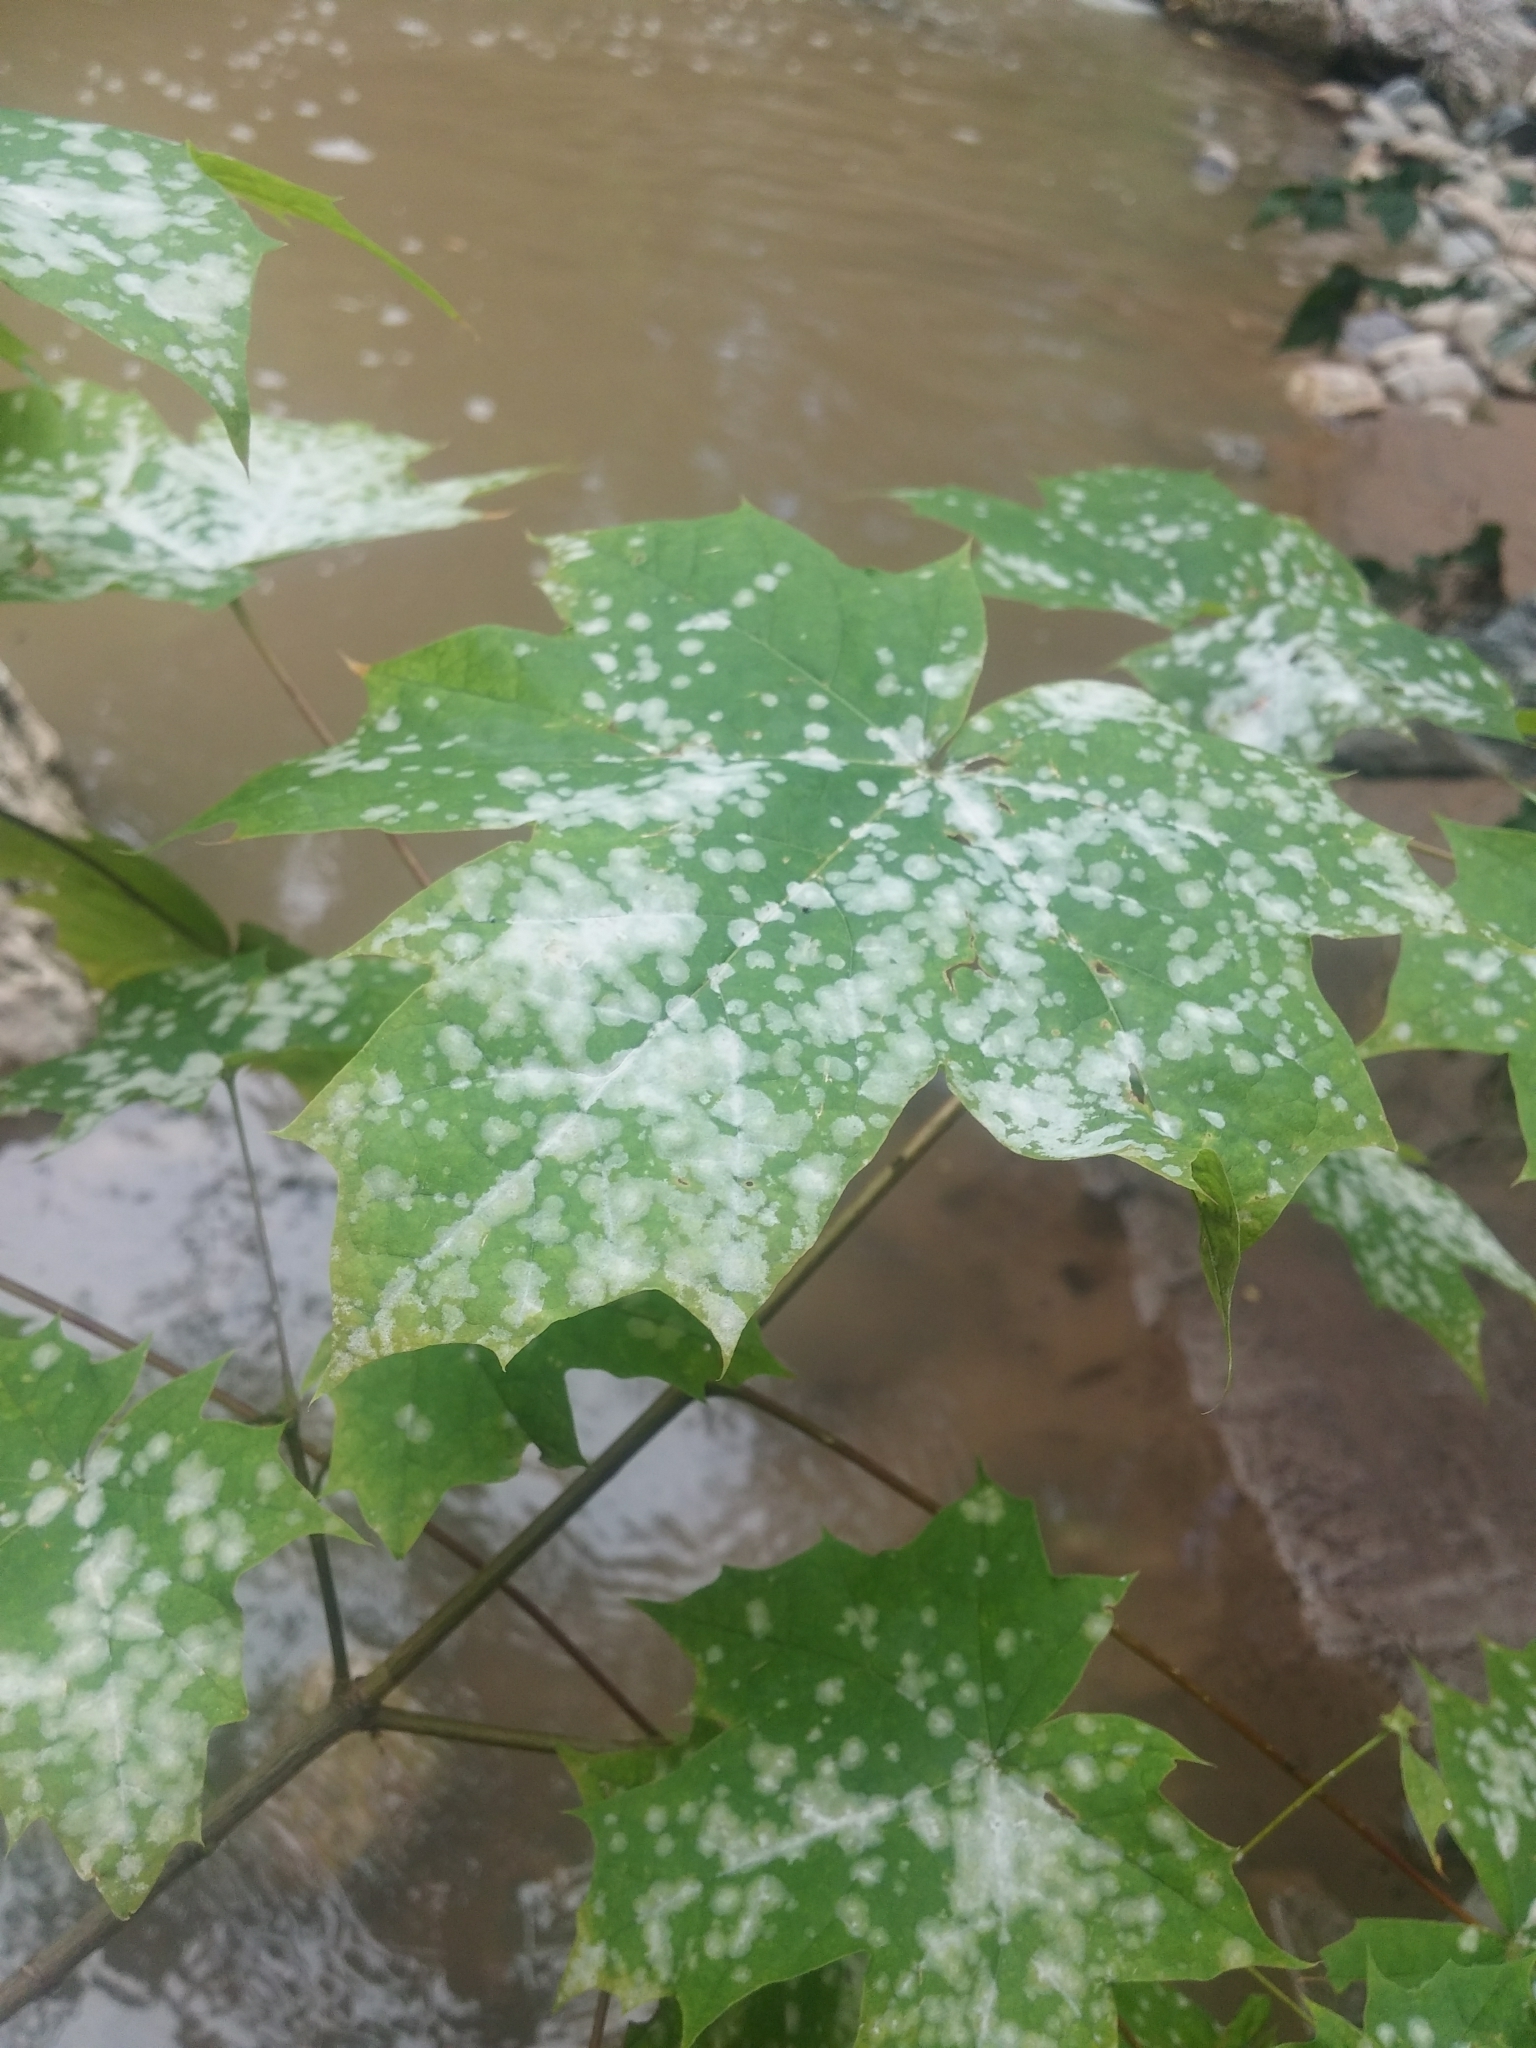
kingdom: Fungi
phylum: Ascomycota
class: Leotiomycetes
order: Helotiales
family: Erysiphaceae
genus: Sawadaea
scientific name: Sawadaea tulasnei
